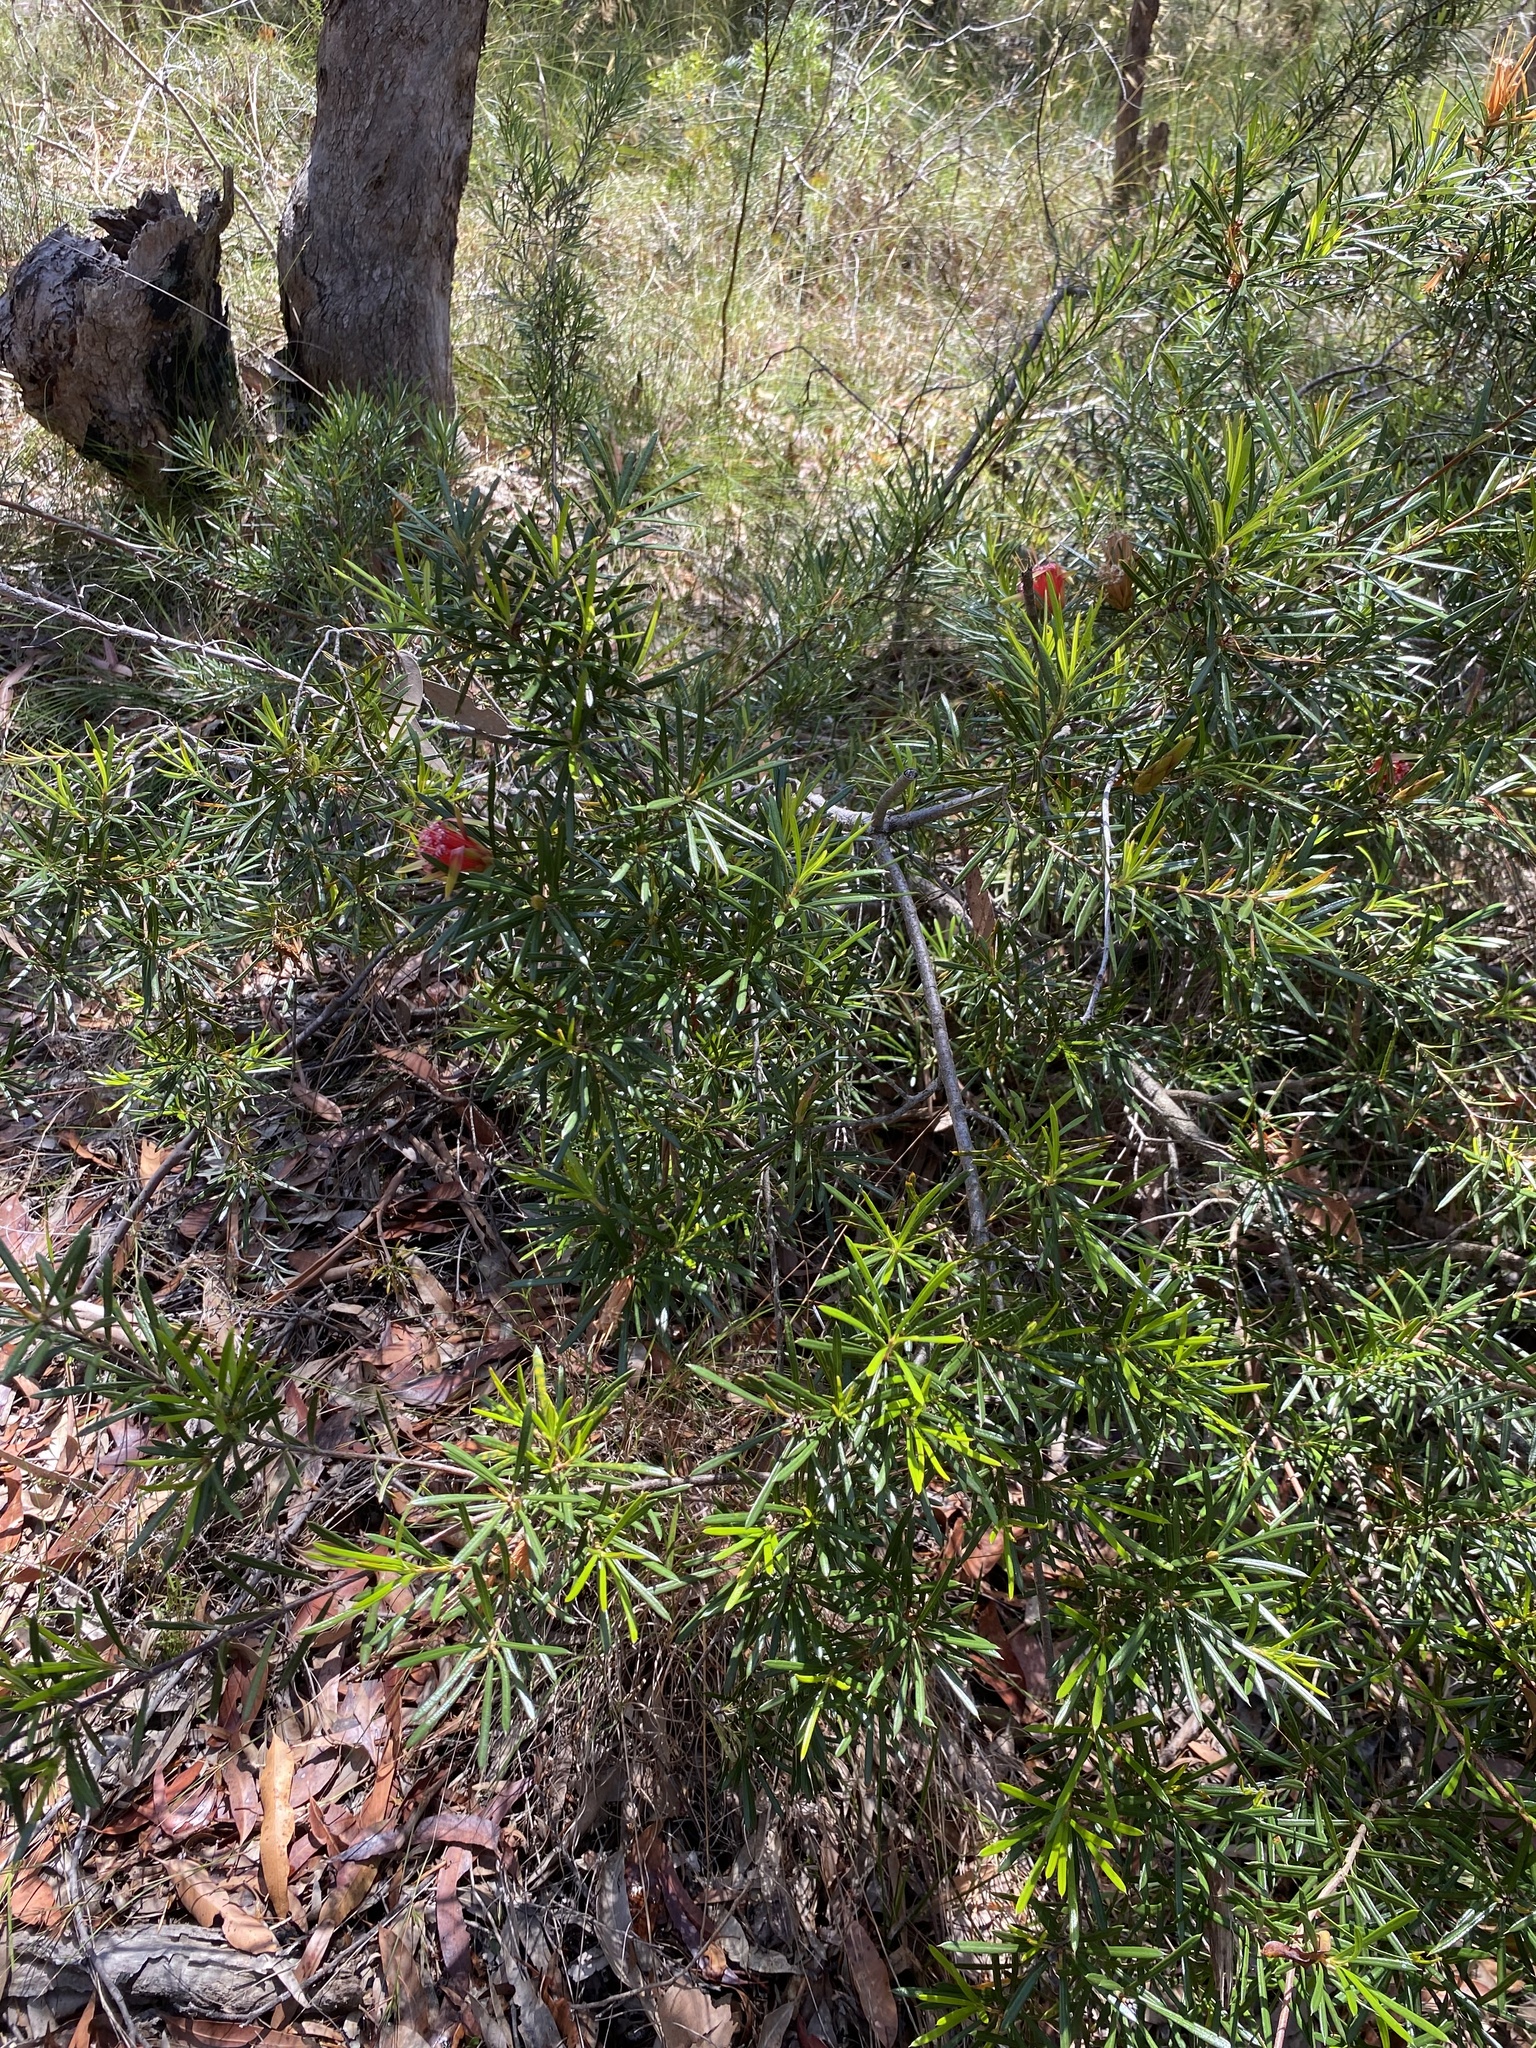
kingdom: Plantae
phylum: Tracheophyta
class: Magnoliopsida
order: Proteales
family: Proteaceae
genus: Lambertia
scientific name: Lambertia formosa
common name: Mountain-devil
